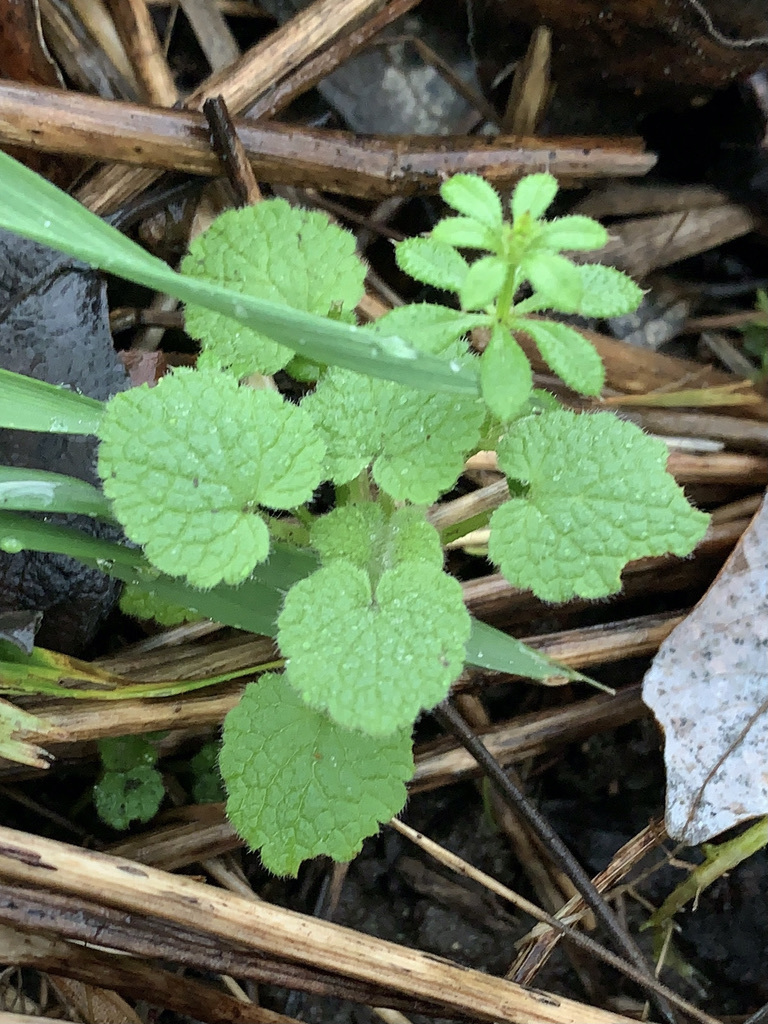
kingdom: Plantae
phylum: Tracheophyta
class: Magnoliopsida
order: Lamiales
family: Lamiaceae
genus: Lamium
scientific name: Lamium purpureum
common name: Red dead-nettle
